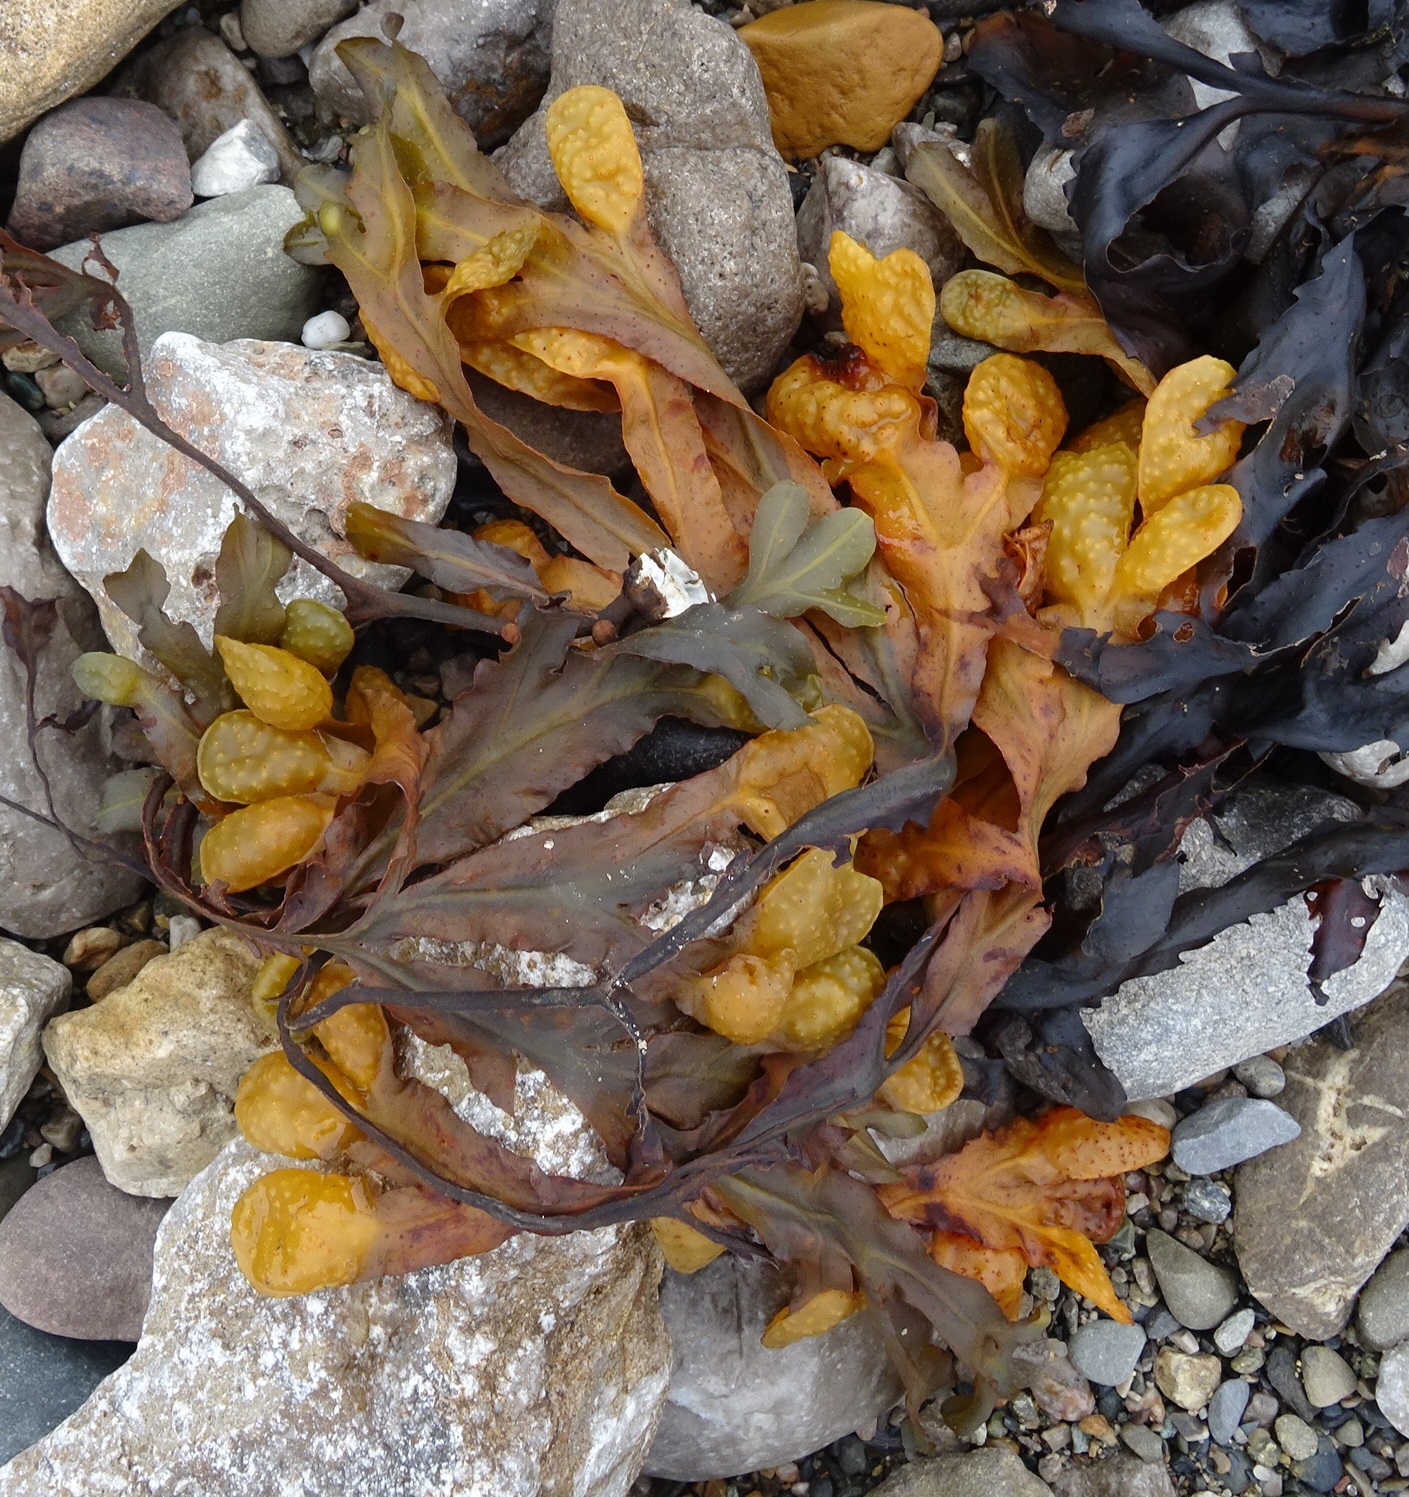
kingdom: Chromista
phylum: Ochrophyta
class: Phaeophyceae
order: Fucales
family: Fucaceae
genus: Fucus
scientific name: Fucus spiralis
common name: Spiral wrack
